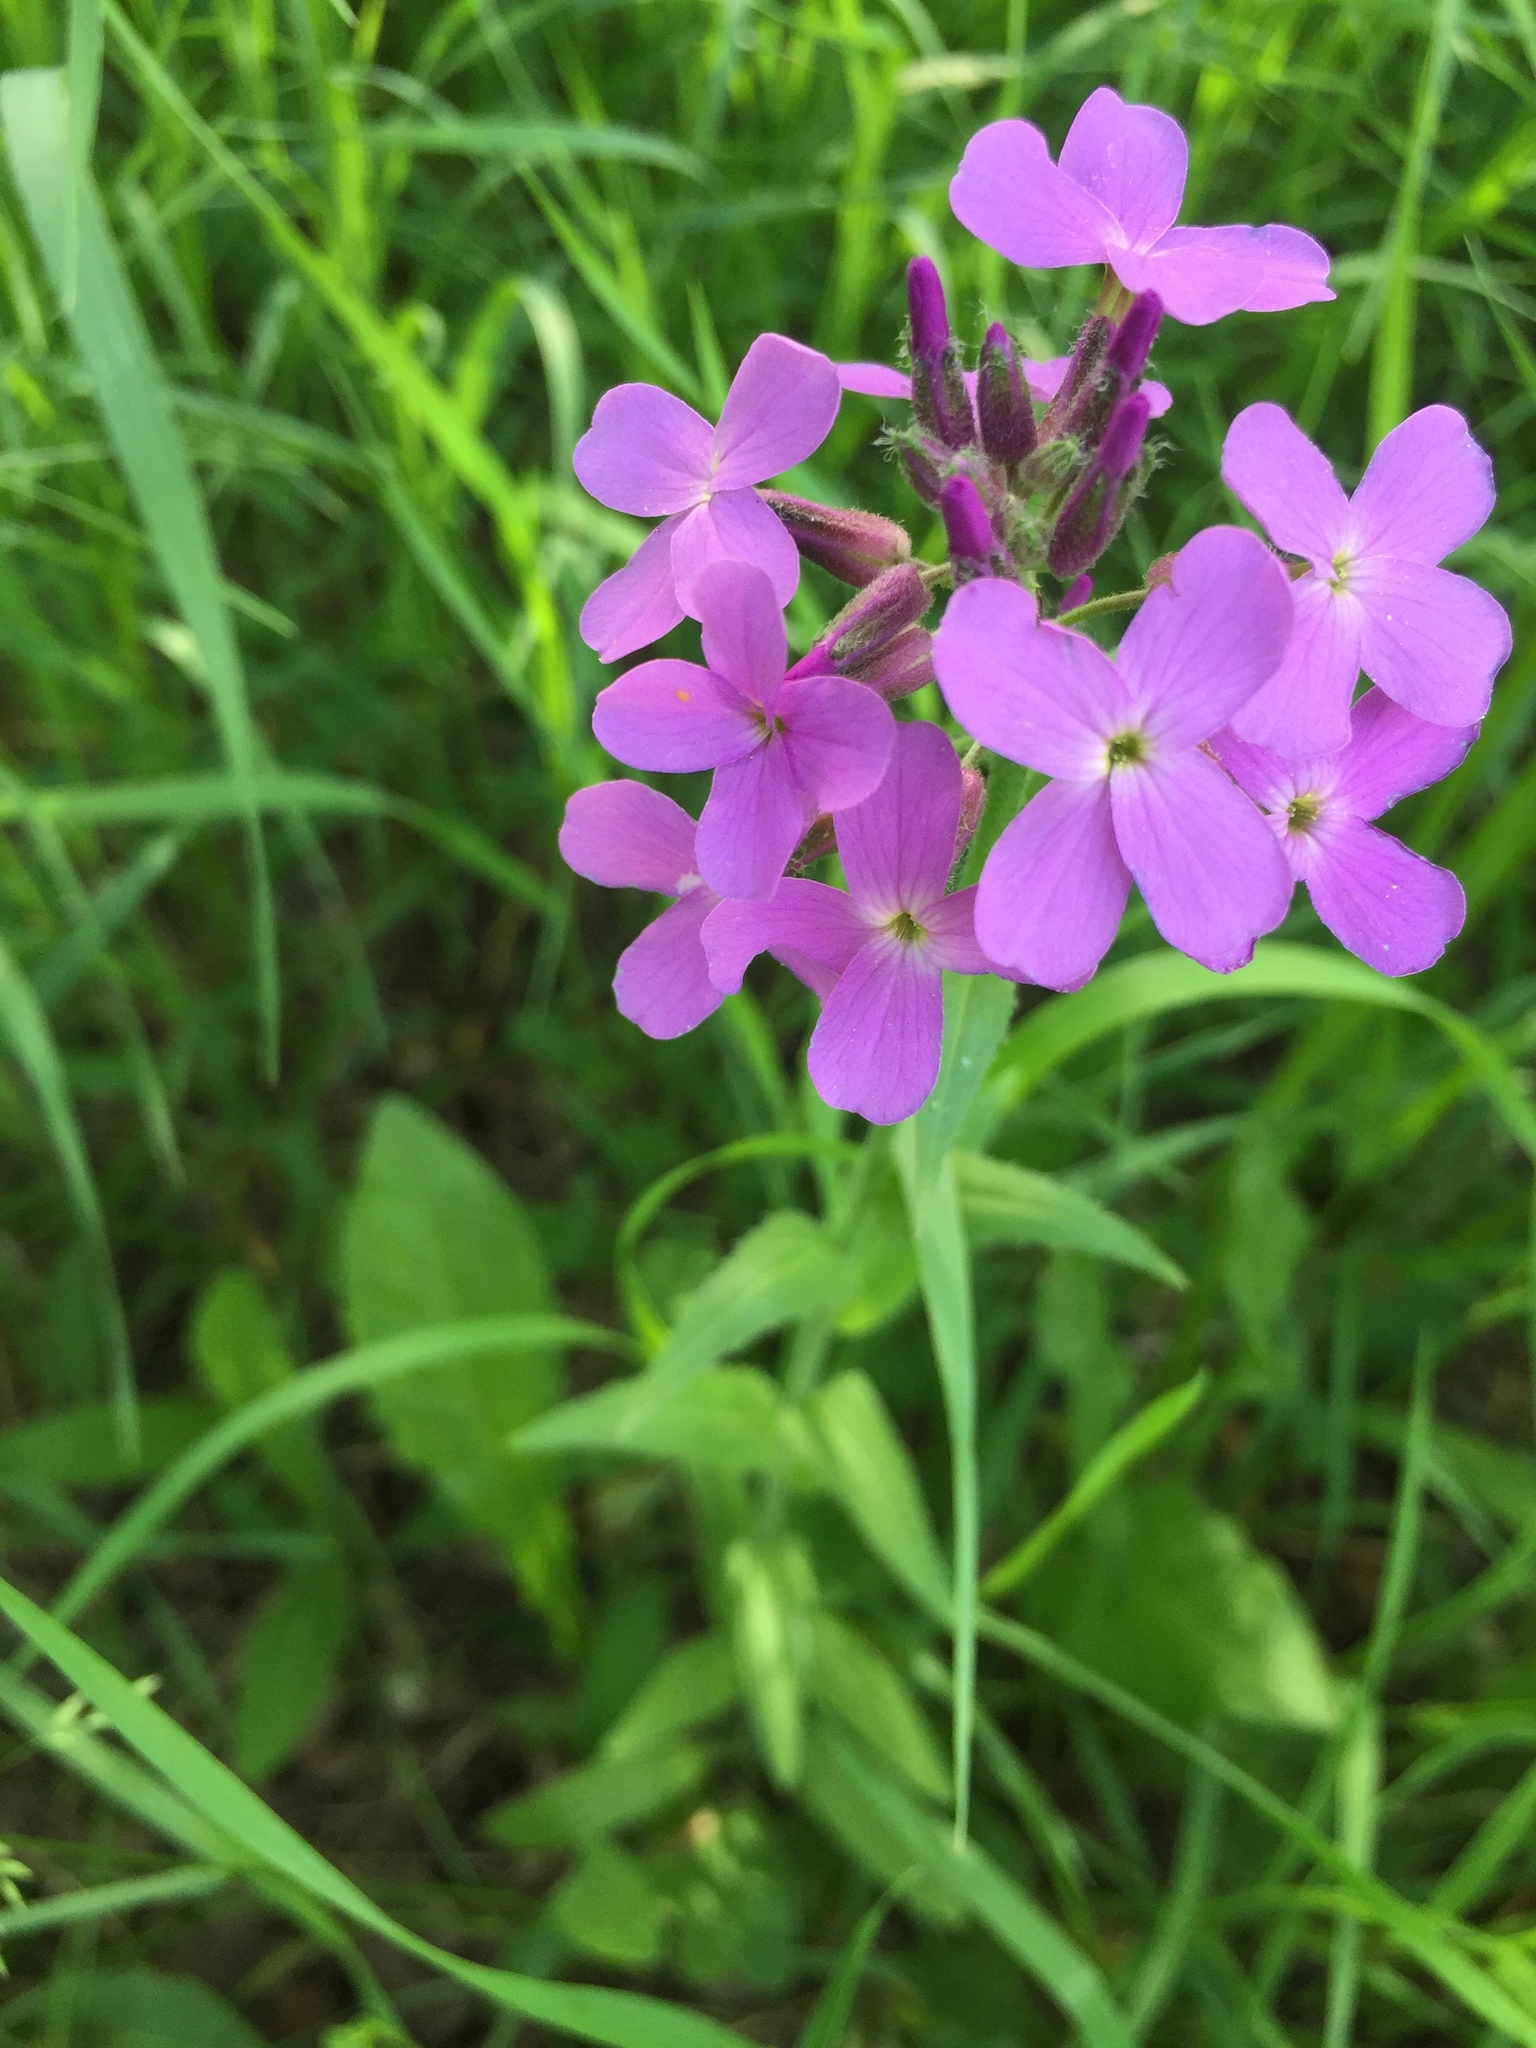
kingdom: Plantae
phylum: Tracheophyta
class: Magnoliopsida
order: Brassicales
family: Brassicaceae
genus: Hesperis
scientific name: Hesperis matronalis
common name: Dame's-violet
